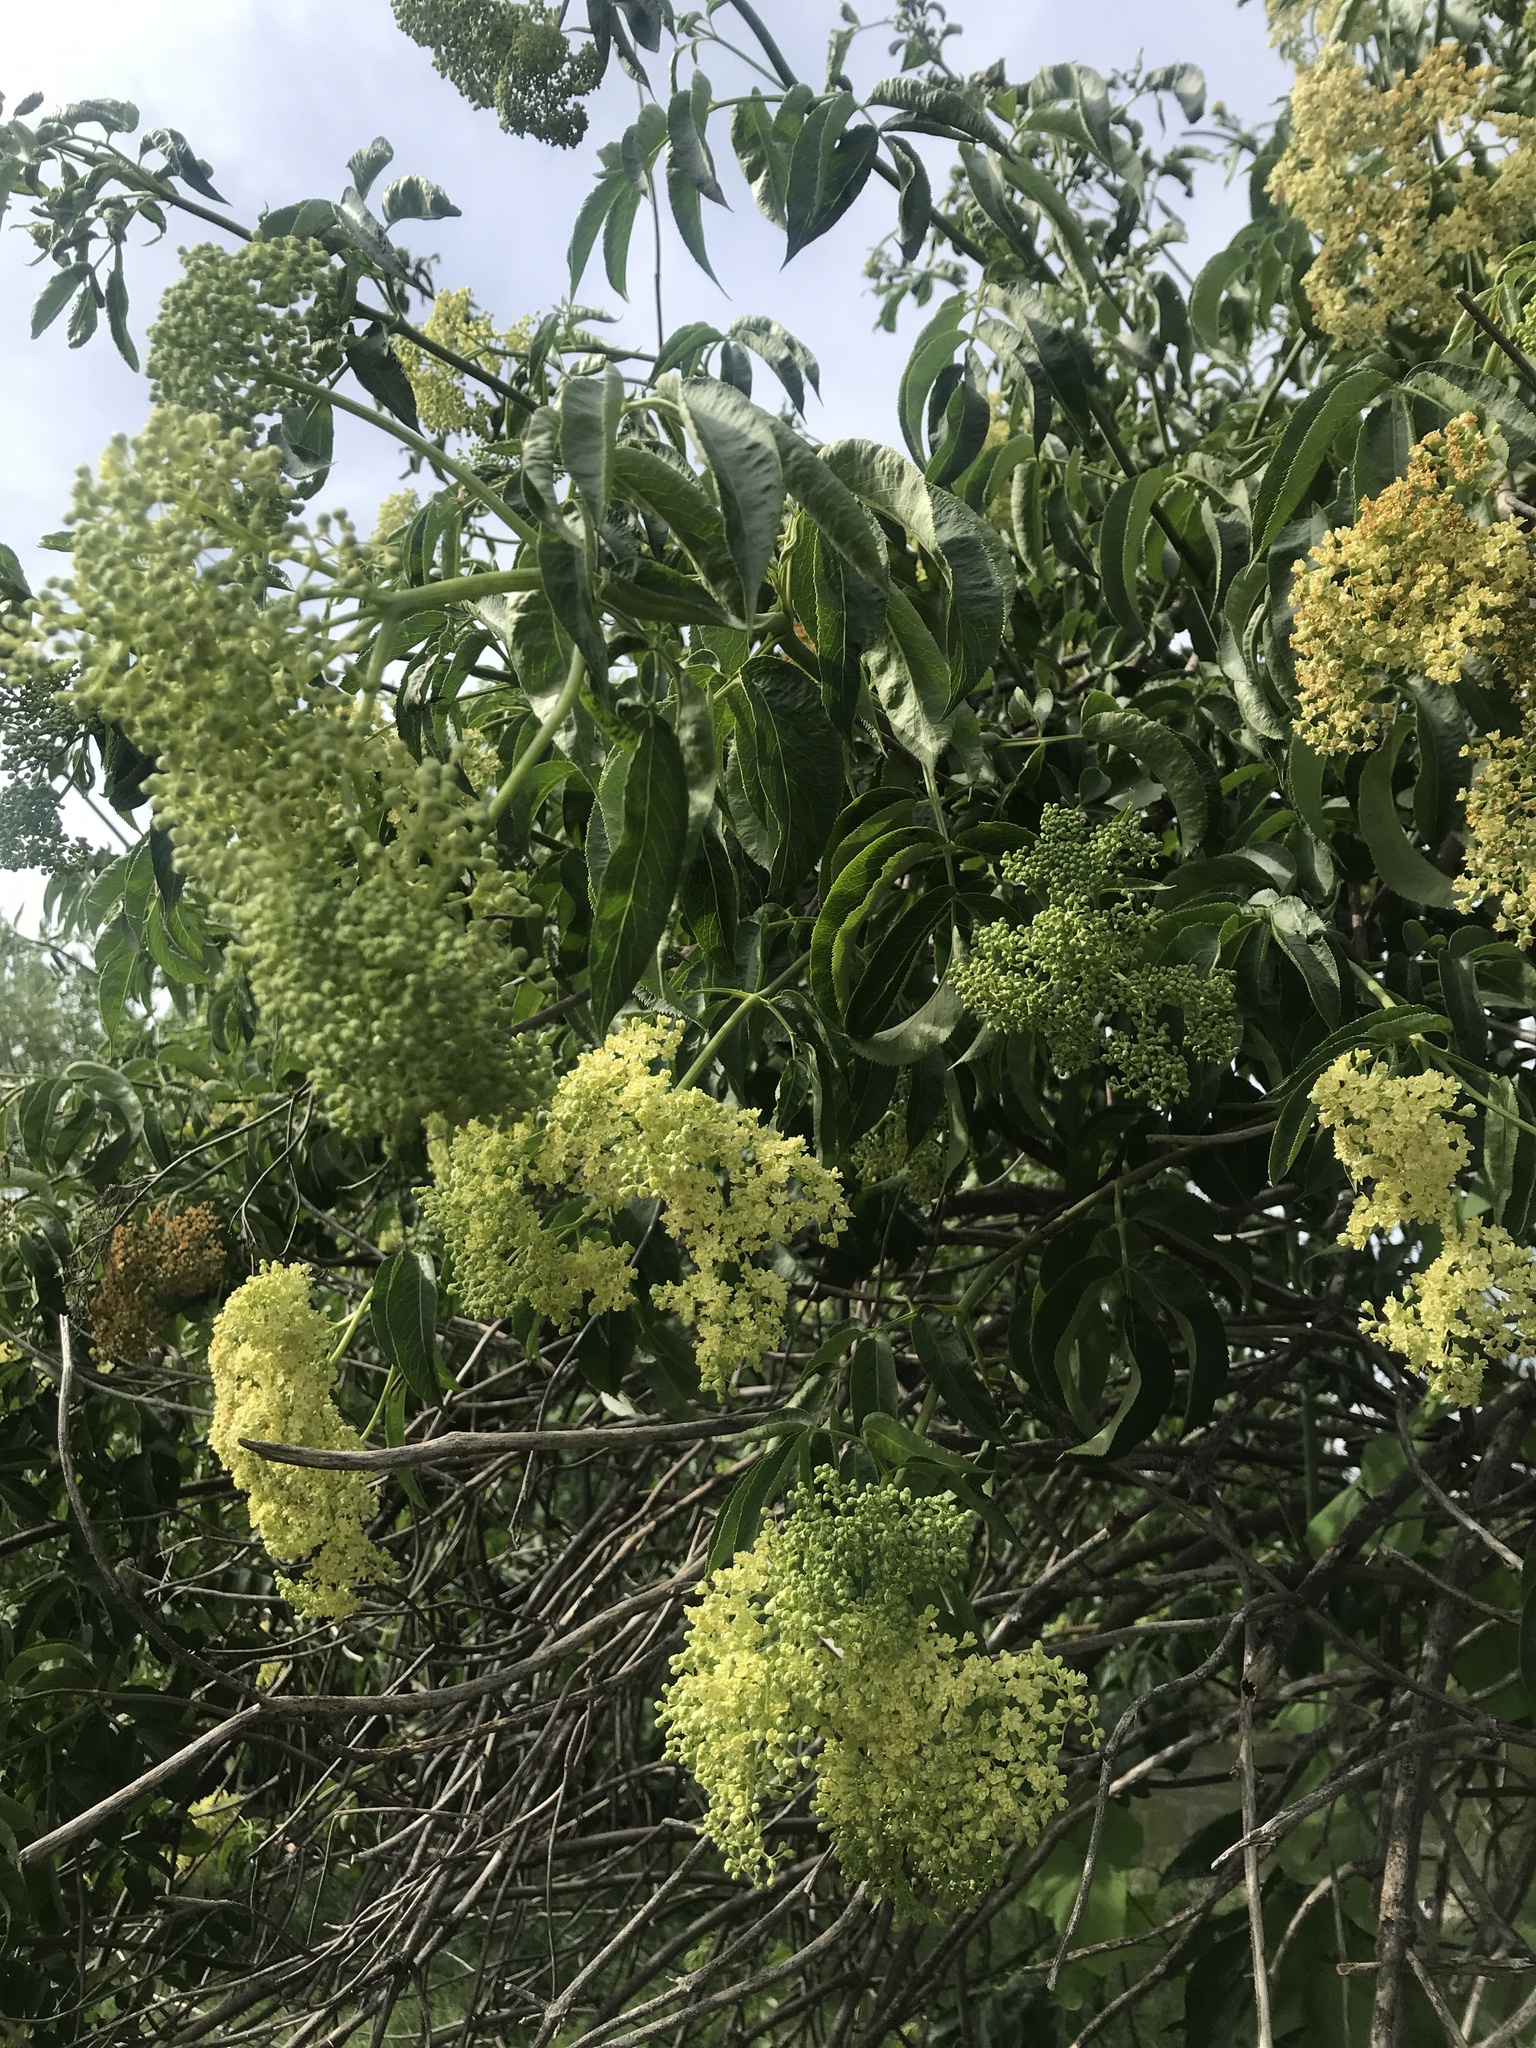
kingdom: Plantae
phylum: Tracheophyta
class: Magnoliopsida
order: Dipsacales
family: Viburnaceae
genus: Sambucus
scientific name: Sambucus cerulea
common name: Blue elder
